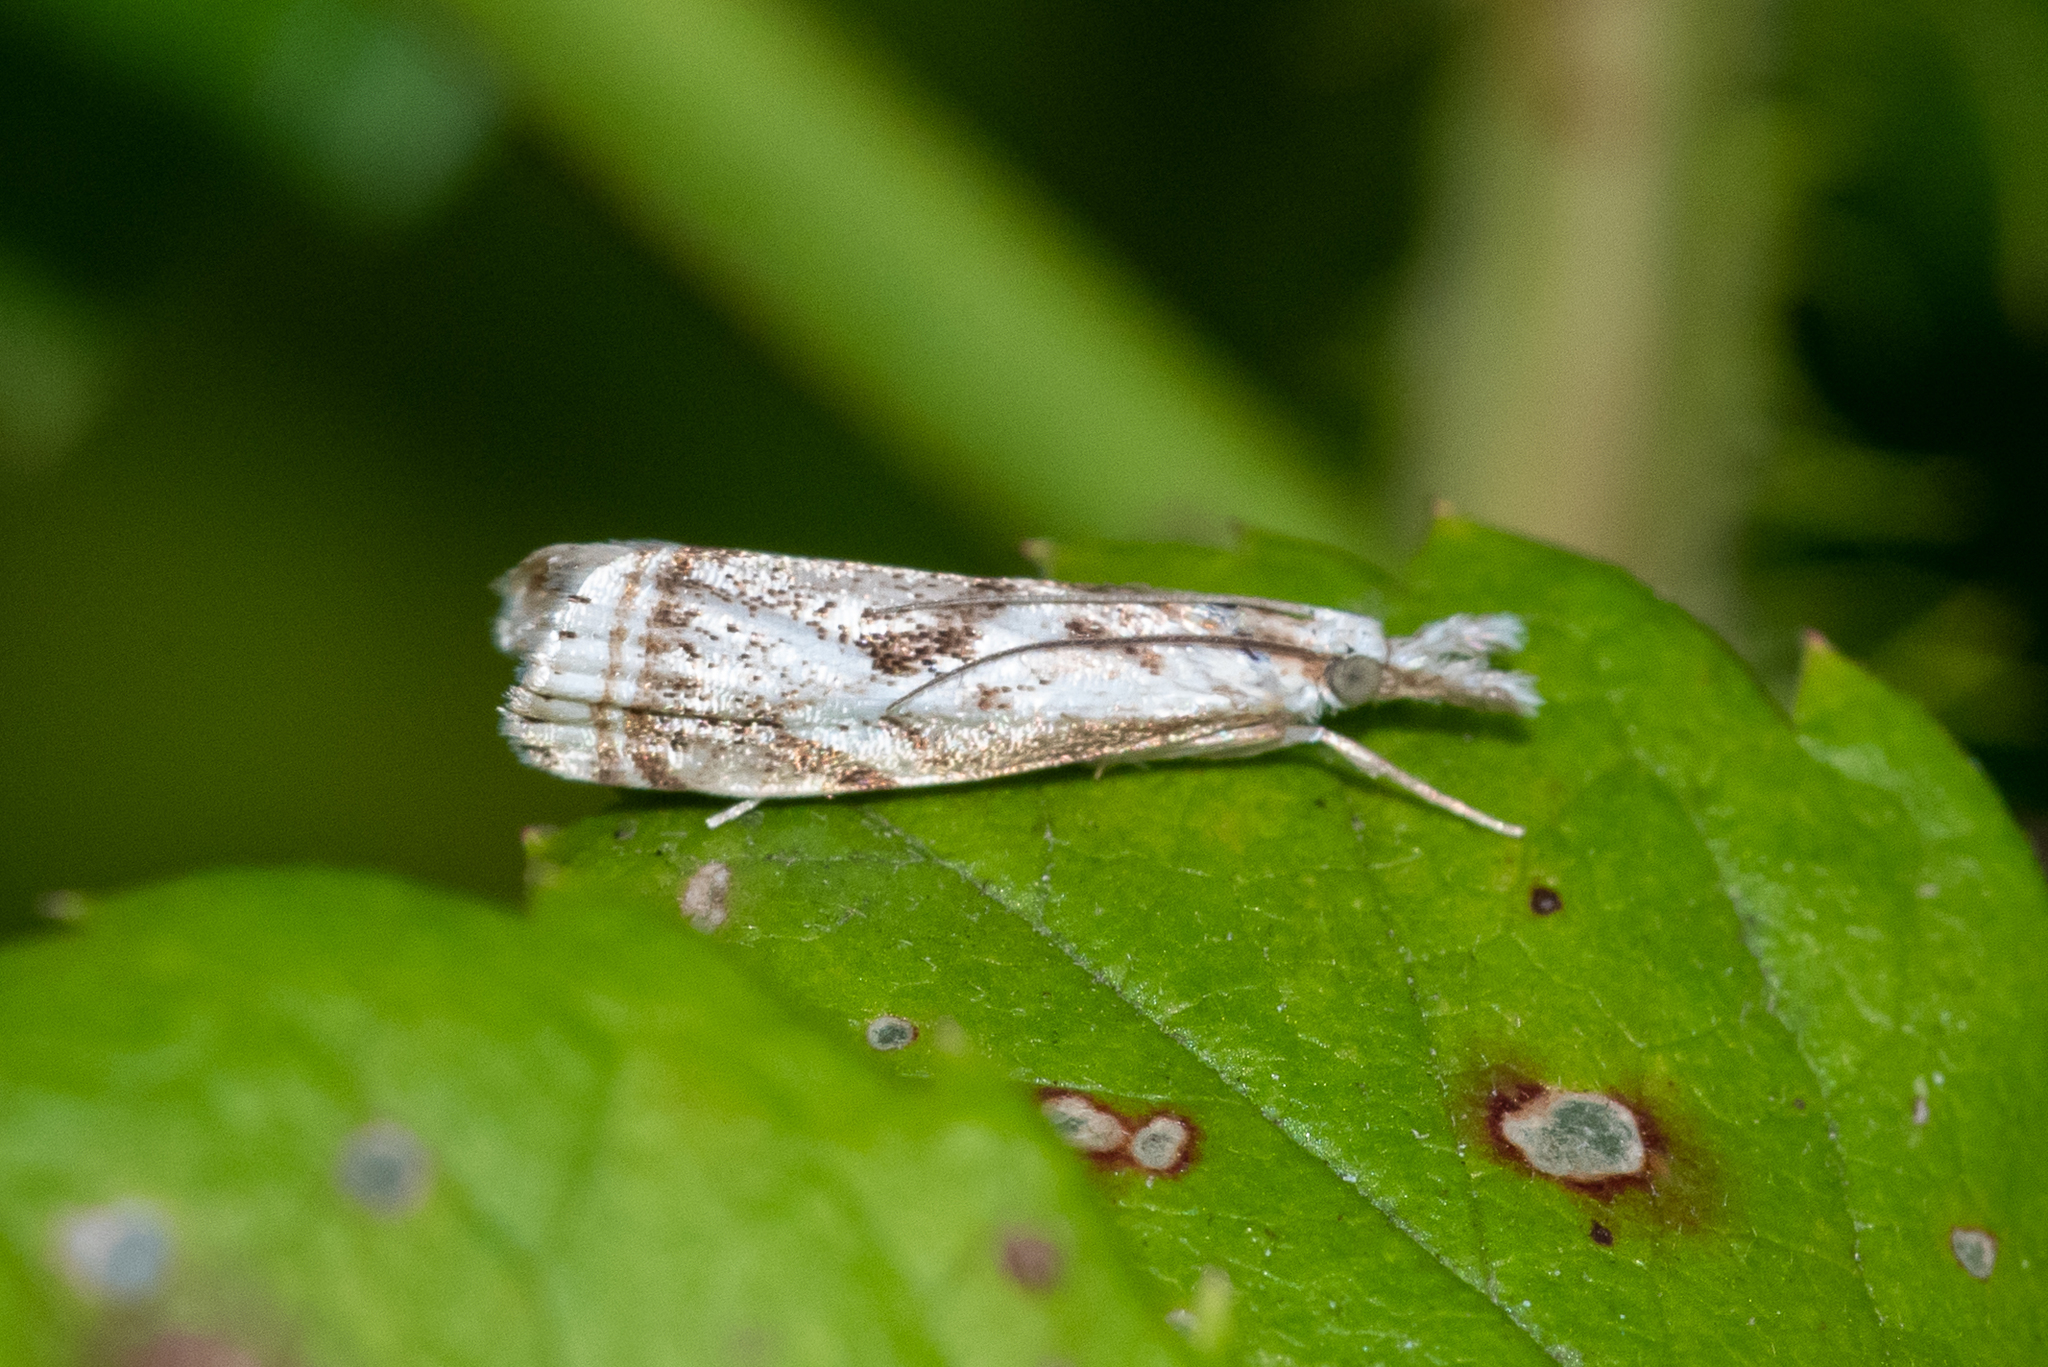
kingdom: Animalia
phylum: Arthropoda
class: Insecta
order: Lepidoptera
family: Crambidae
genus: Microcrambus
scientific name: Microcrambus elegans
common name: Elegant grass-veneer
